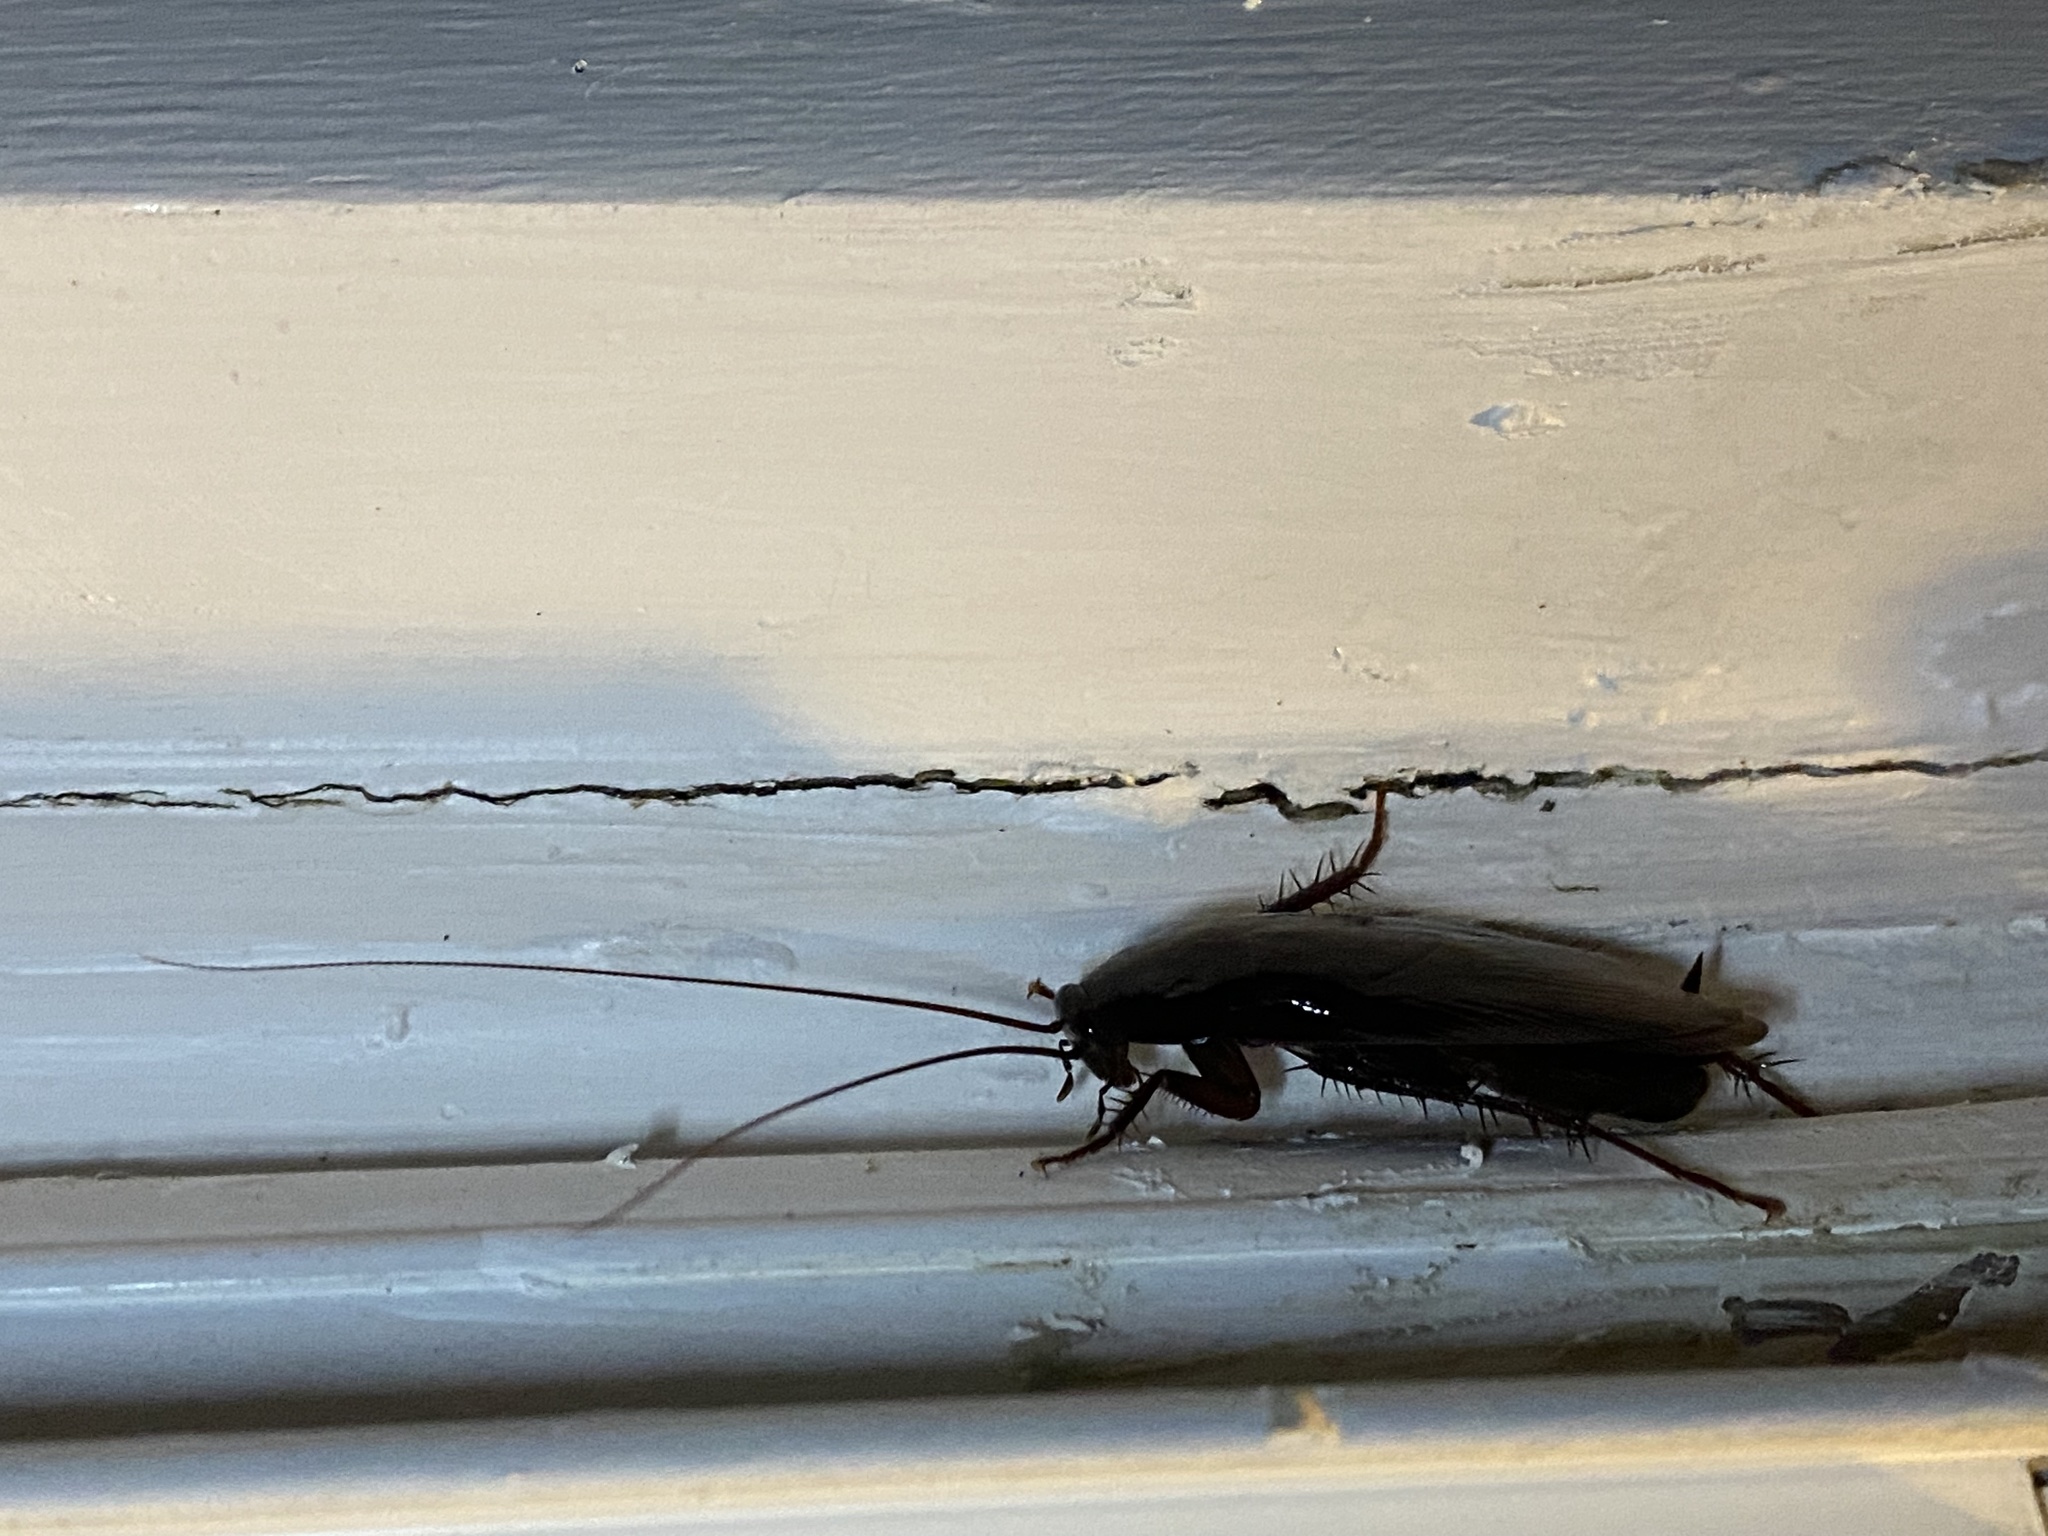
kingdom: Animalia
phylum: Arthropoda
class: Insecta
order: Blattodea
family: Blattidae
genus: Periplaneta
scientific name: Periplaneta fuliginosa
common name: Smokeybrown cockroad
